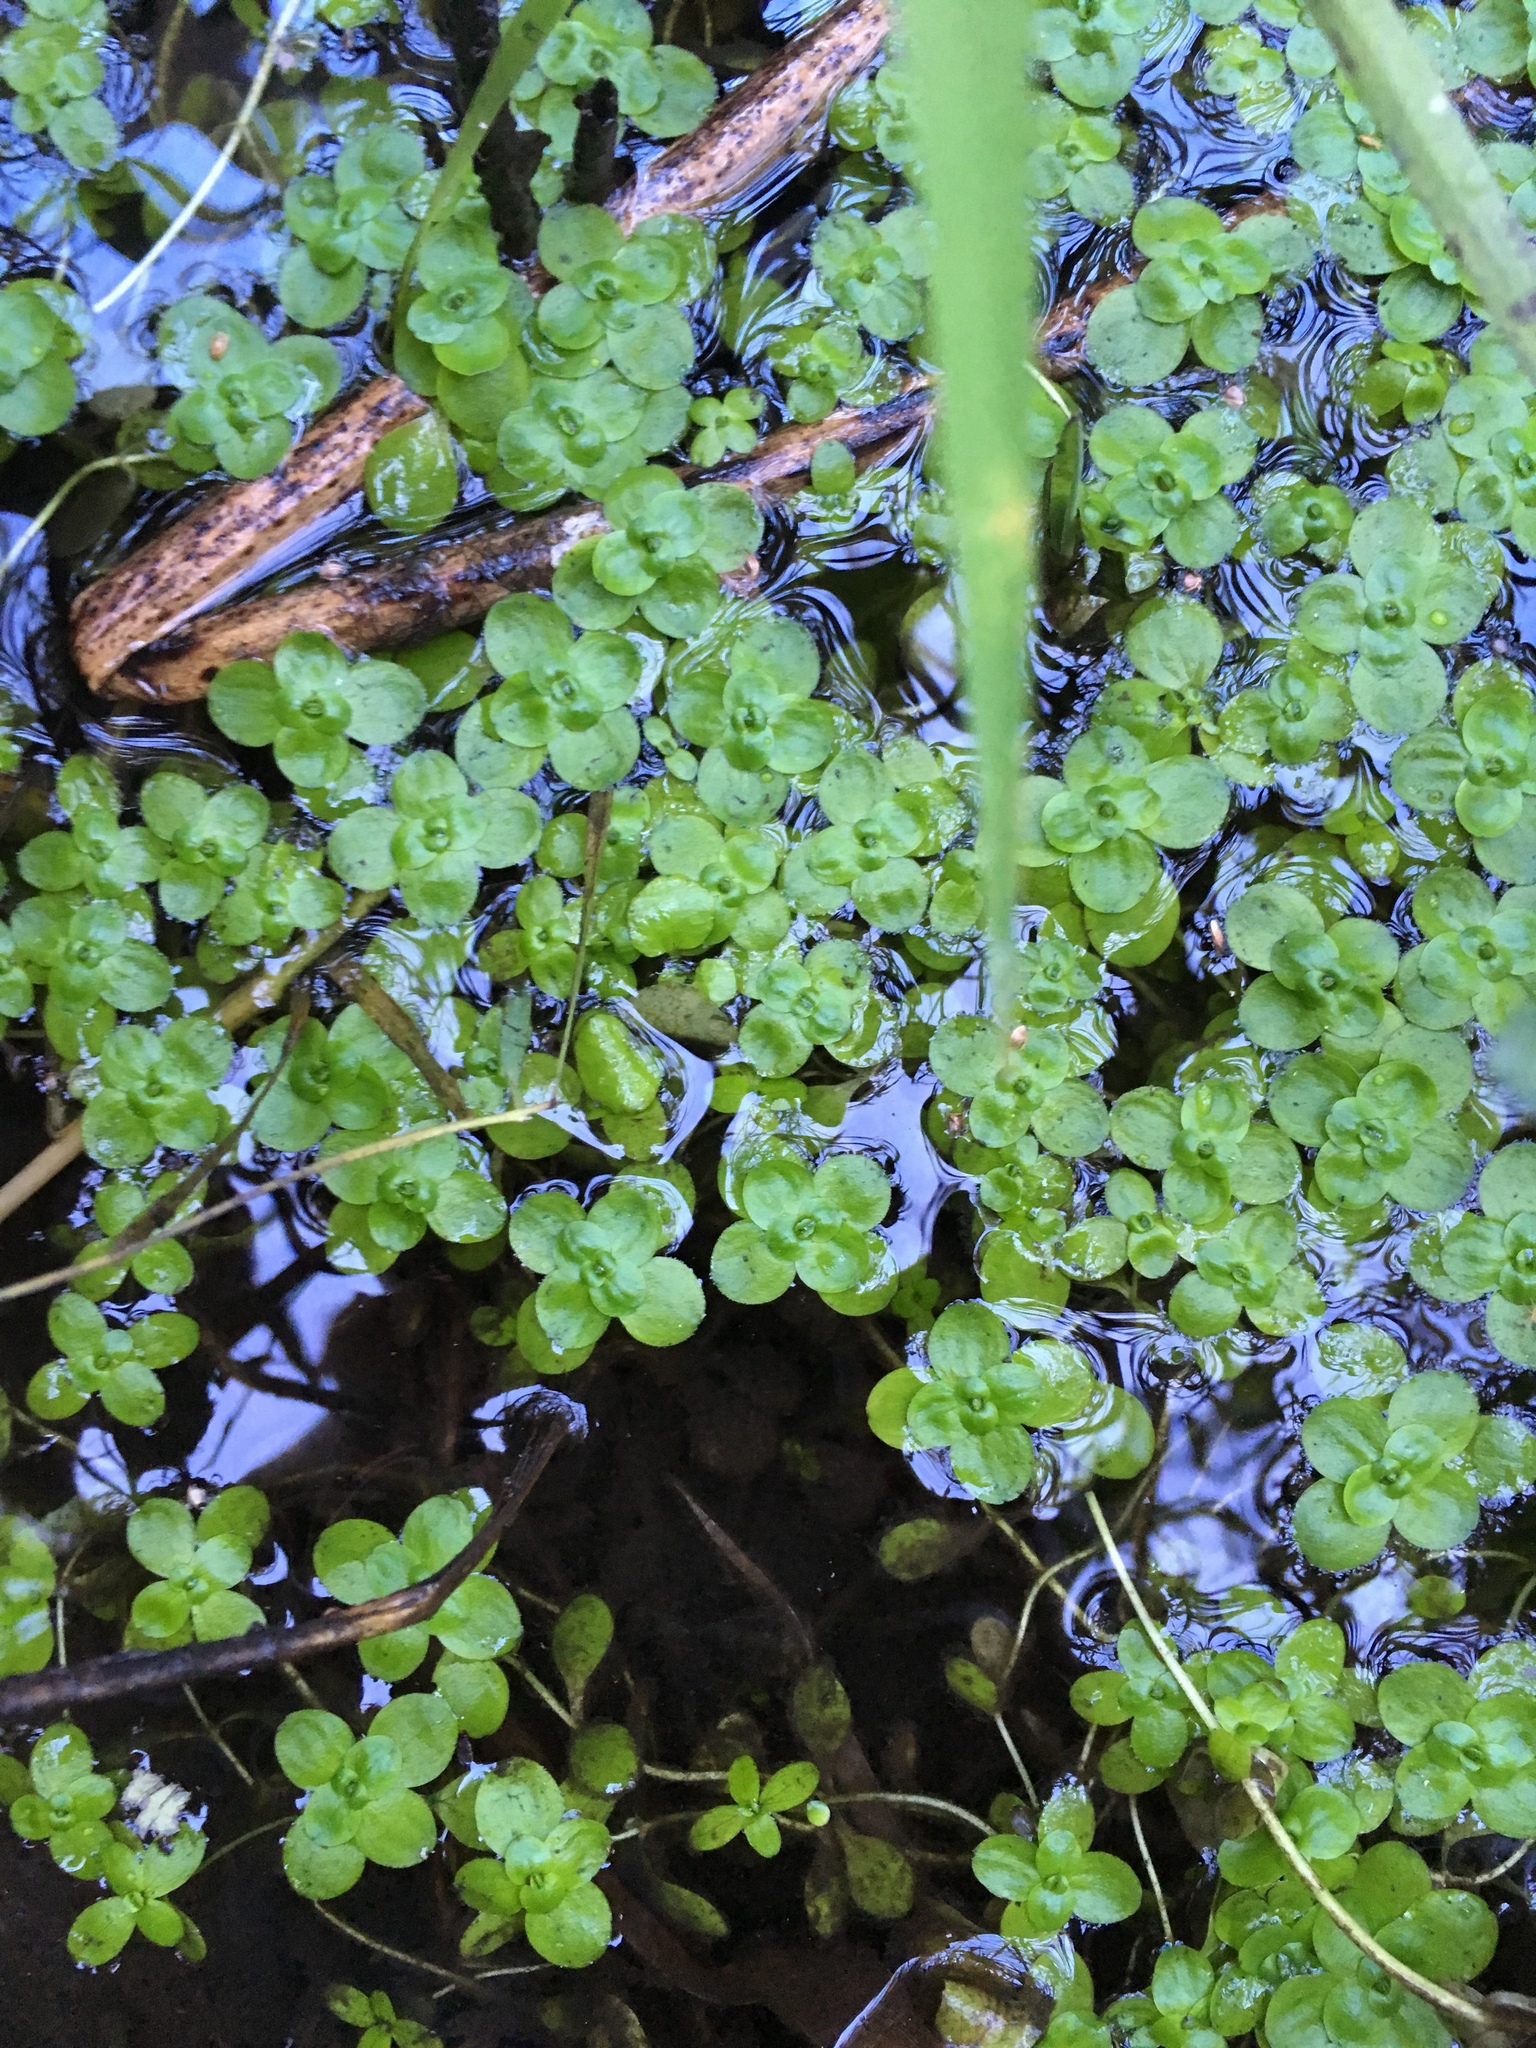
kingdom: Plantae
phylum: Tracheophyta
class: Magnoliopsida
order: Lamiales
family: Plantaginaceae
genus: Callitriche
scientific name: Callitriche stagnalis
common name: Common water-starwort
